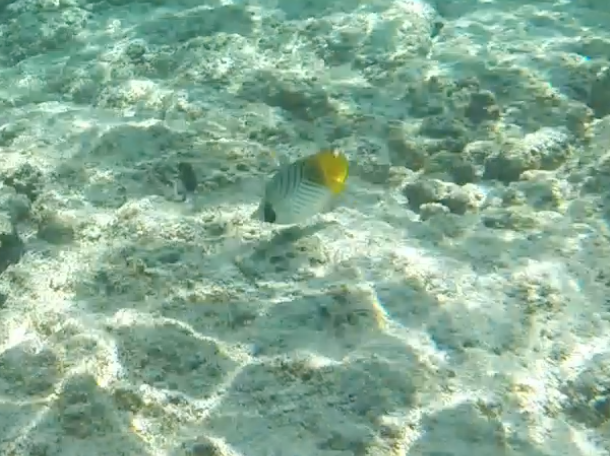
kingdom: Animalia
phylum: Chordata
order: Perciformes
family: Chaetodontidae
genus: Chaetodon
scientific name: Chaetodon auriga
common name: Threadfin butterflyfish
